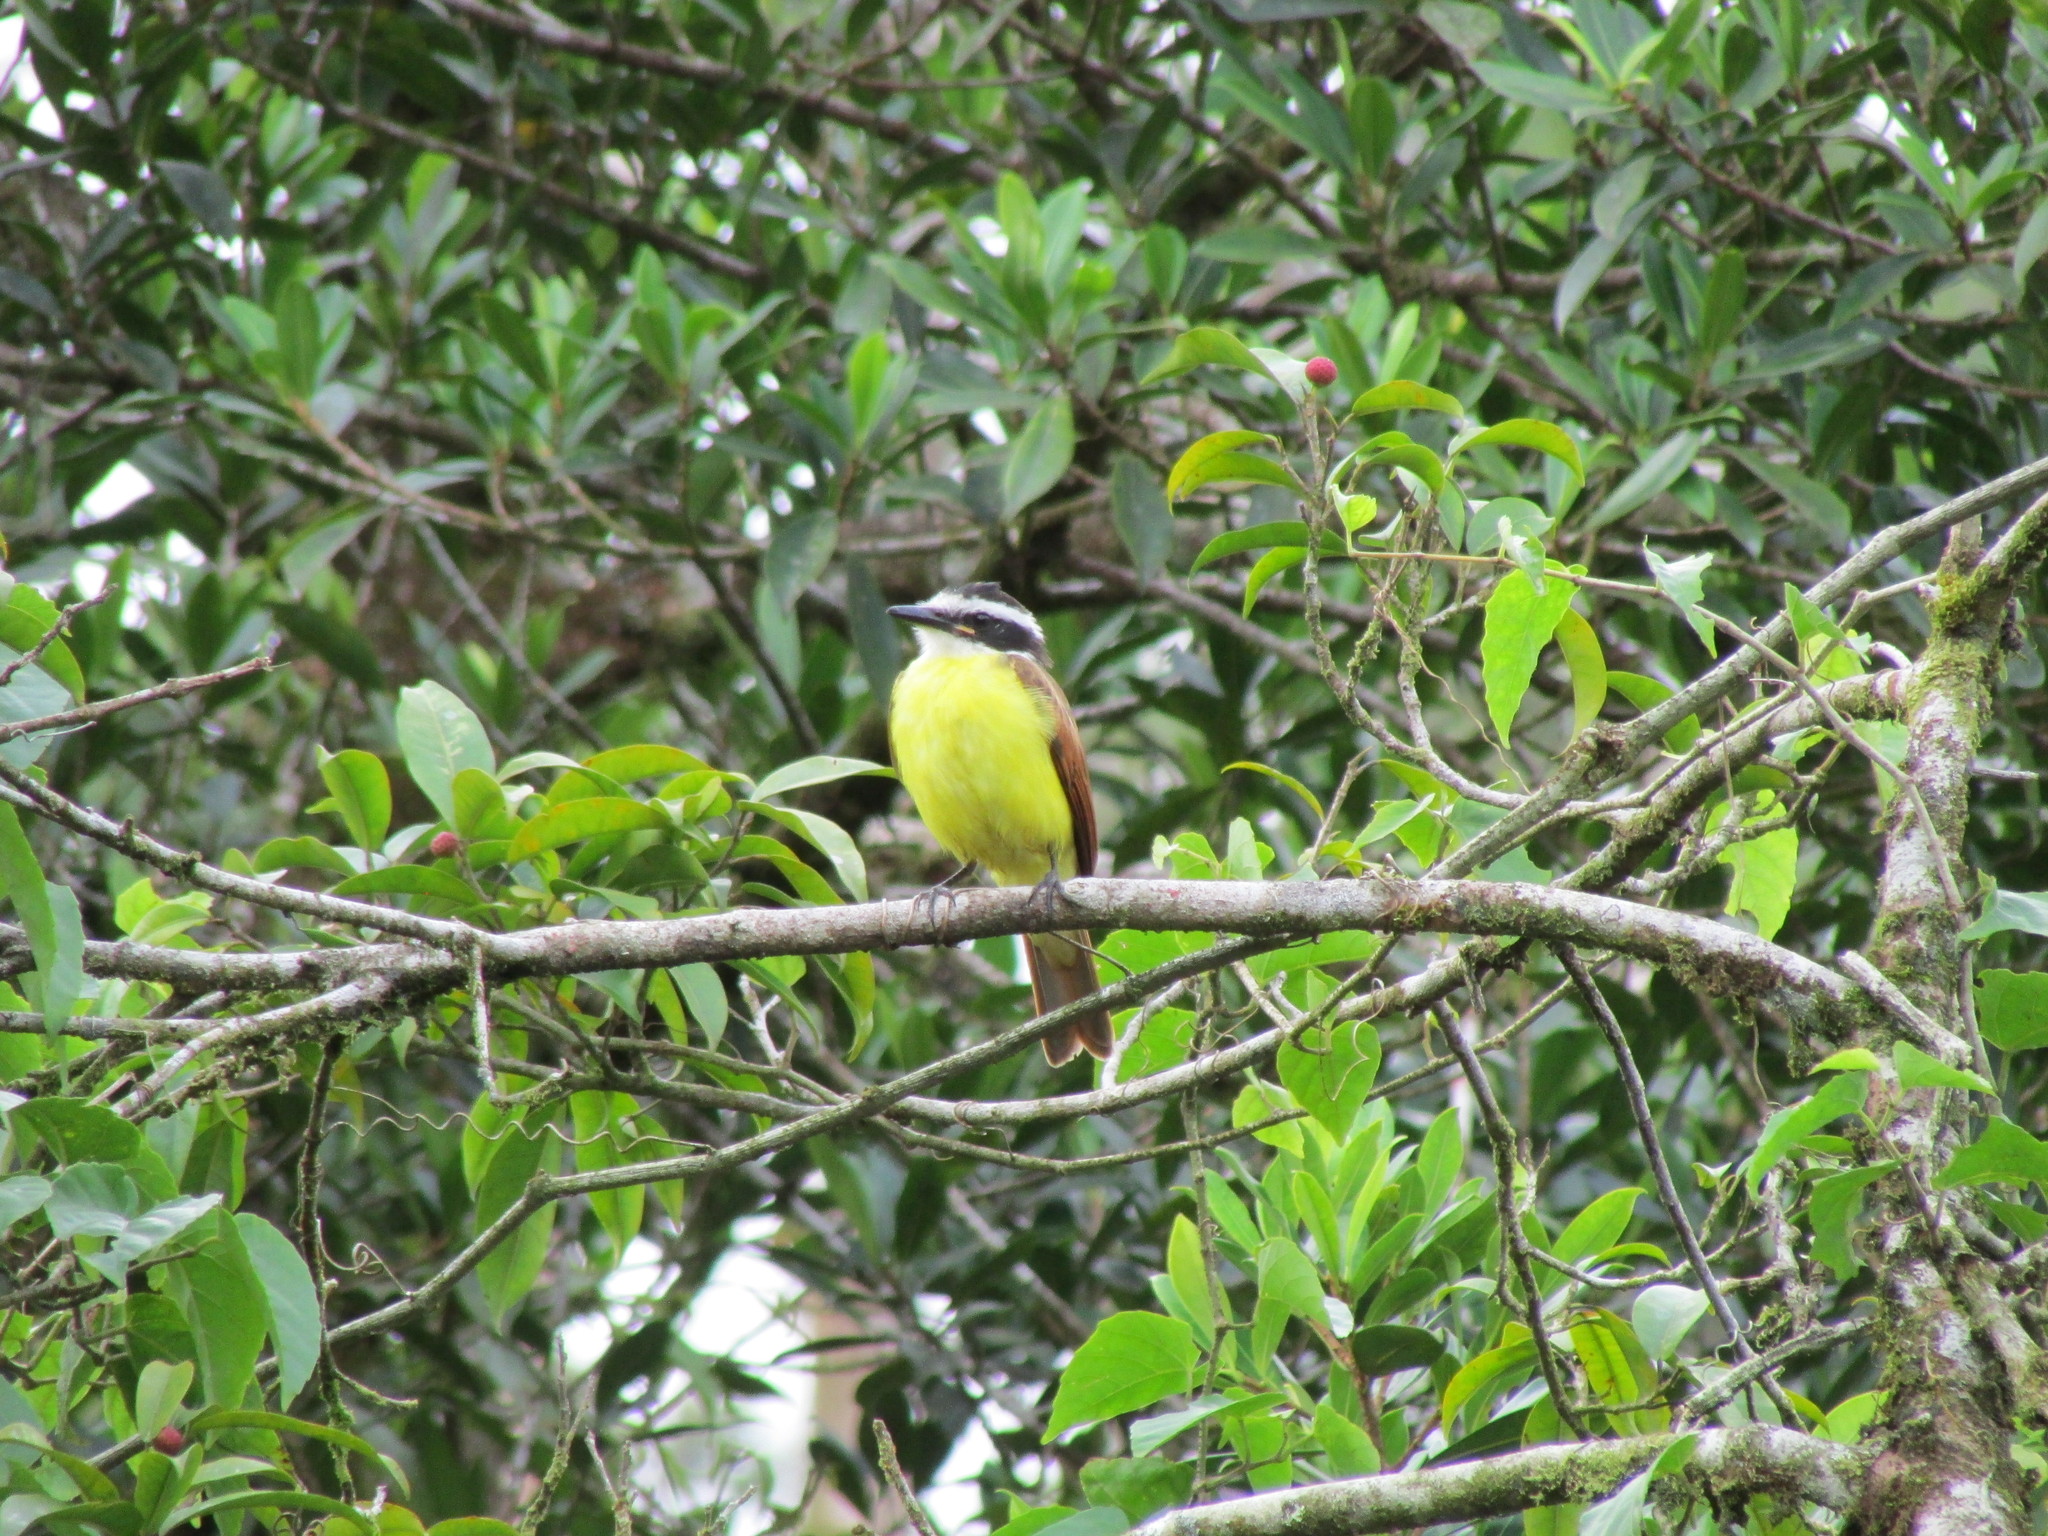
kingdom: Animalia
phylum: Chordata
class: Aves
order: Passeriformes
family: Tyrannidae
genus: Pitangus
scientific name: Pitangus sulphuratus
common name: Great kiskadee
